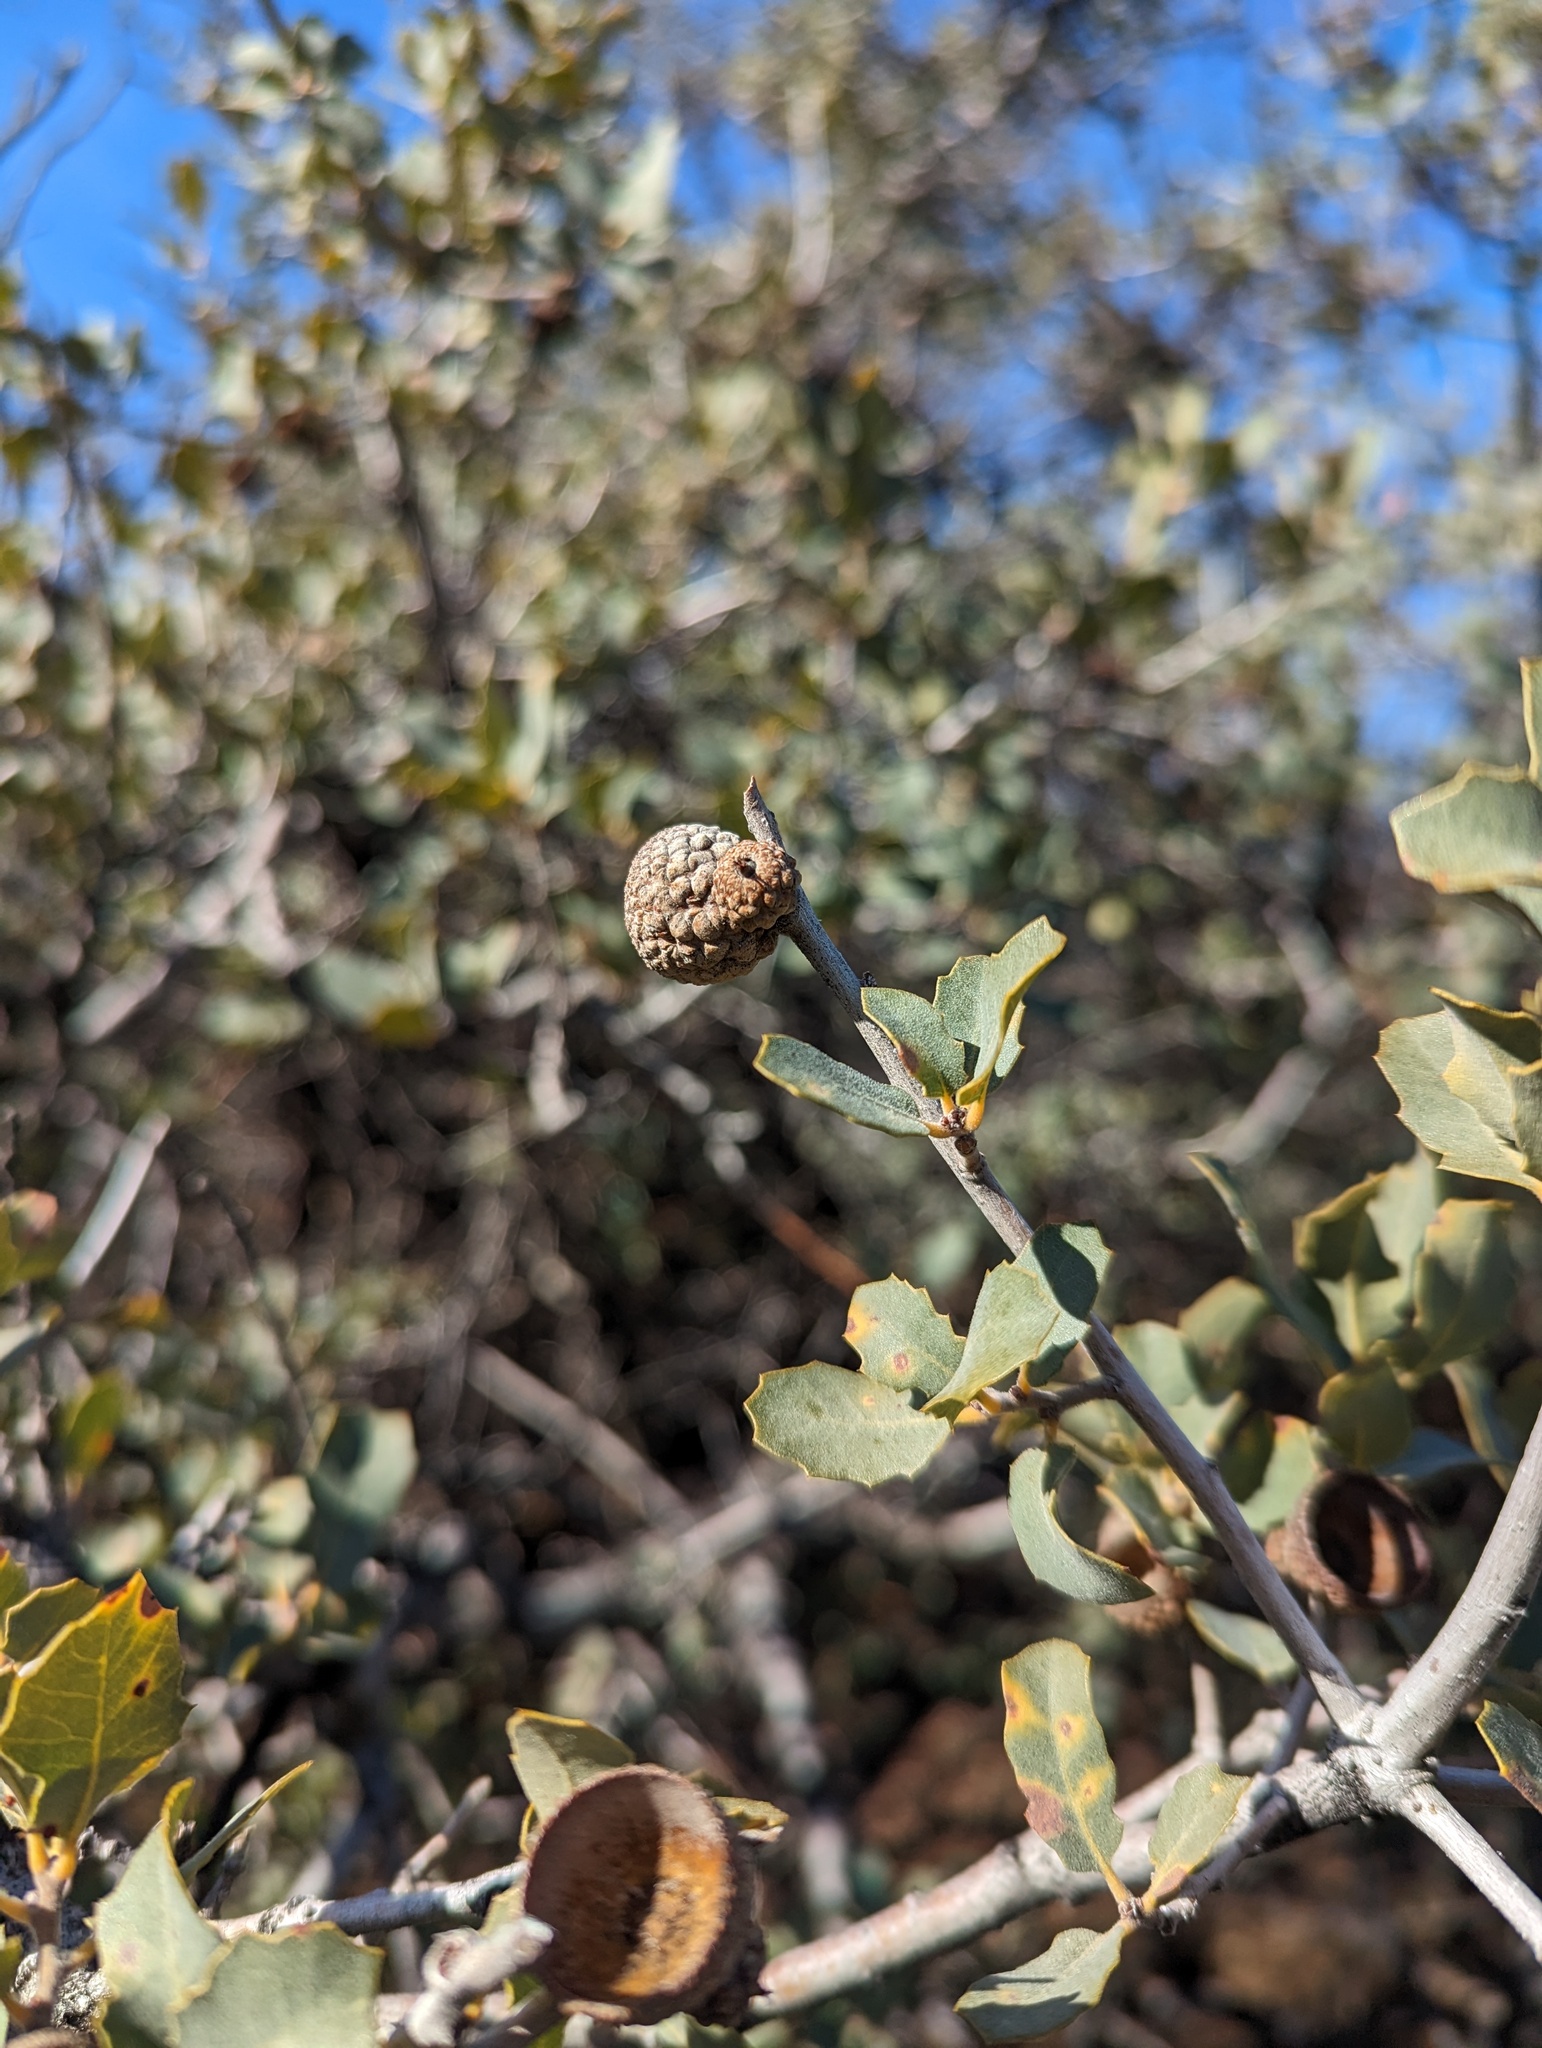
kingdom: Plantae
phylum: Tracheophyta
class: Magnoliopsida
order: Fagales
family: Fagaceae
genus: Quercus
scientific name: Quercus john-tuckeri
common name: Tucker's oak
